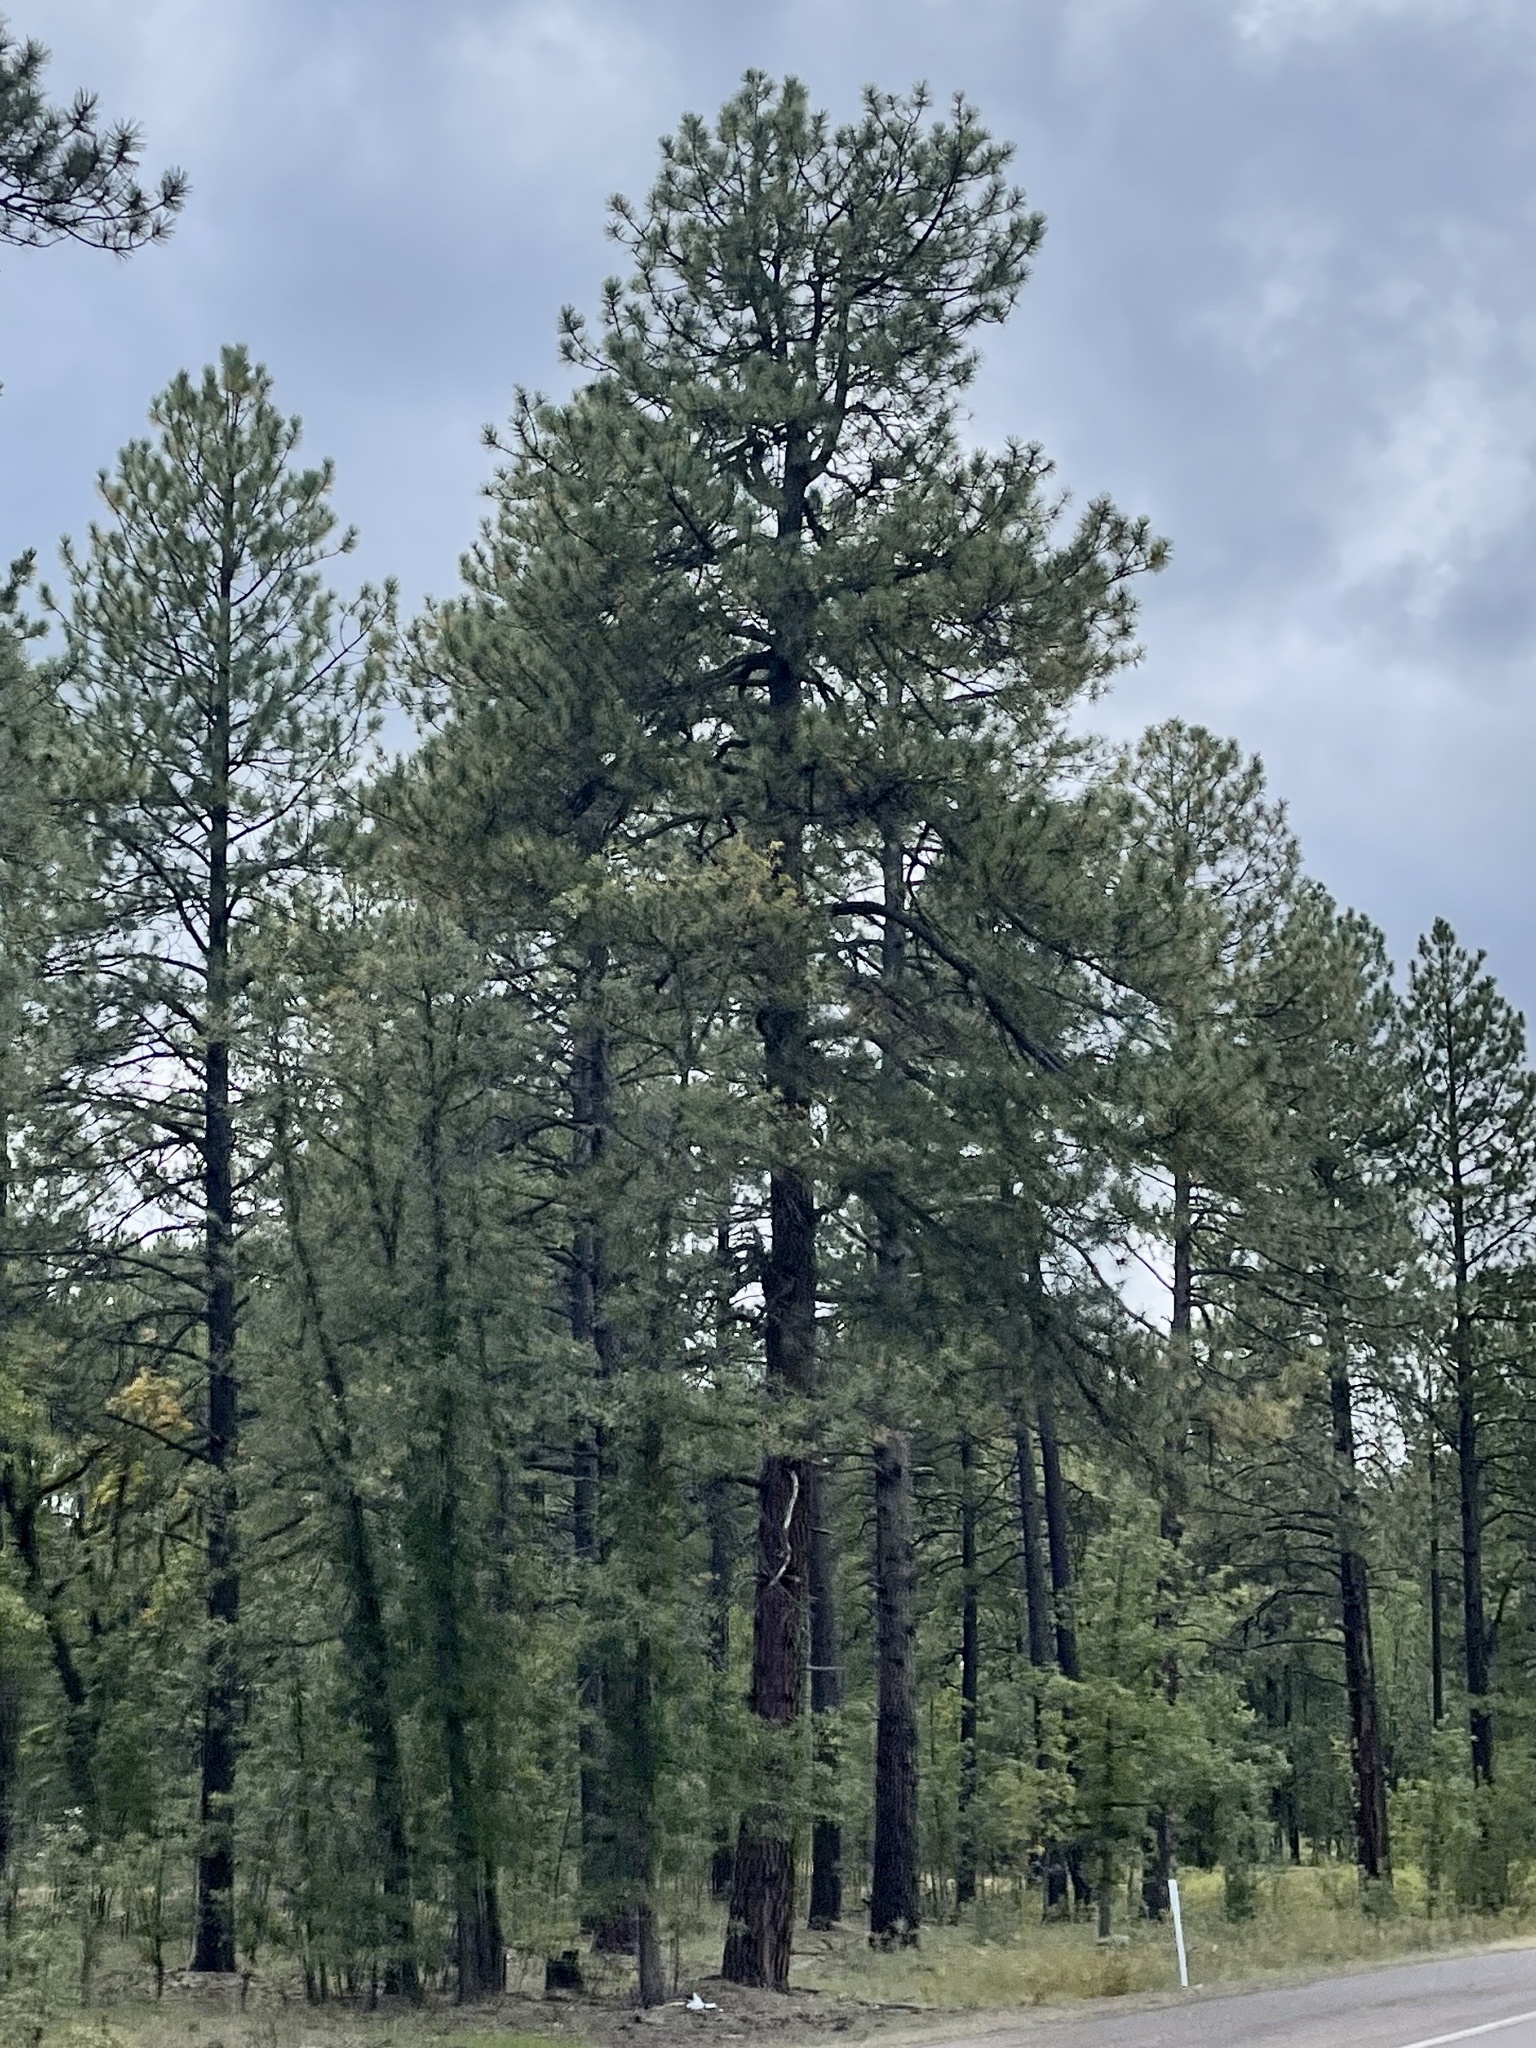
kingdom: Plantae
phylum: Tracheophyta
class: Pinopsida
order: Pinales
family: Pinaceae
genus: Pinus
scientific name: Pinus ponderosa
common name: Western yellow-pine
